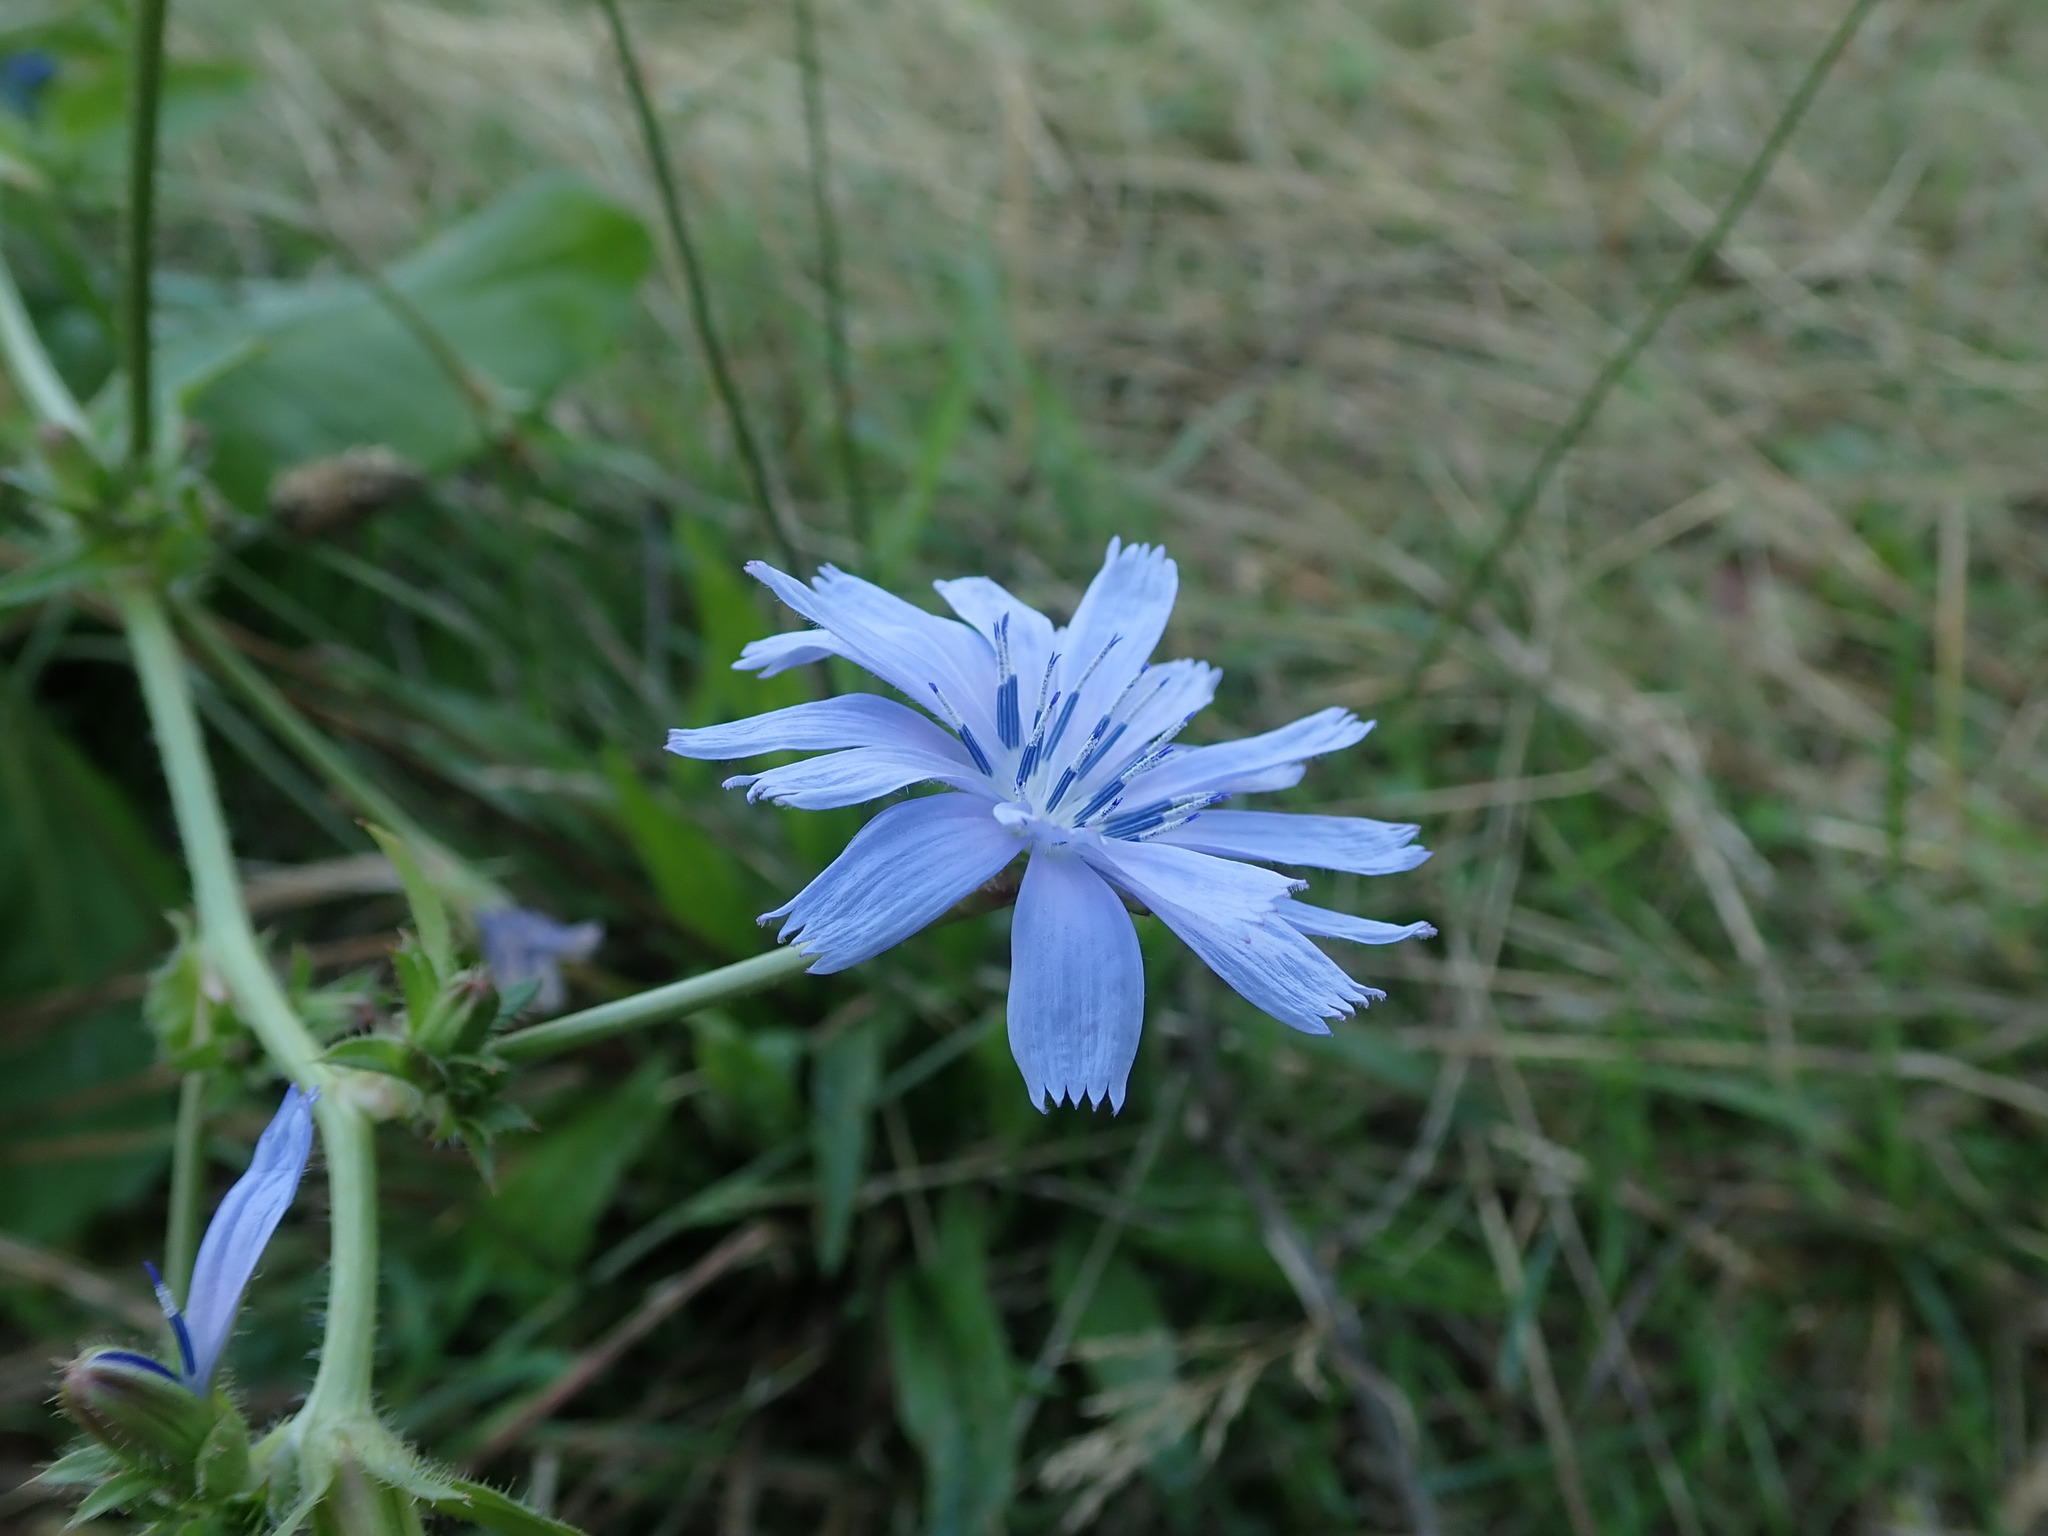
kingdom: Plantae
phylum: Tracheophyta
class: Magnoliopsida
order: Asterales
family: Asteraceae
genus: Cichorium
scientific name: Cichorium intybus
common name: Chicory
